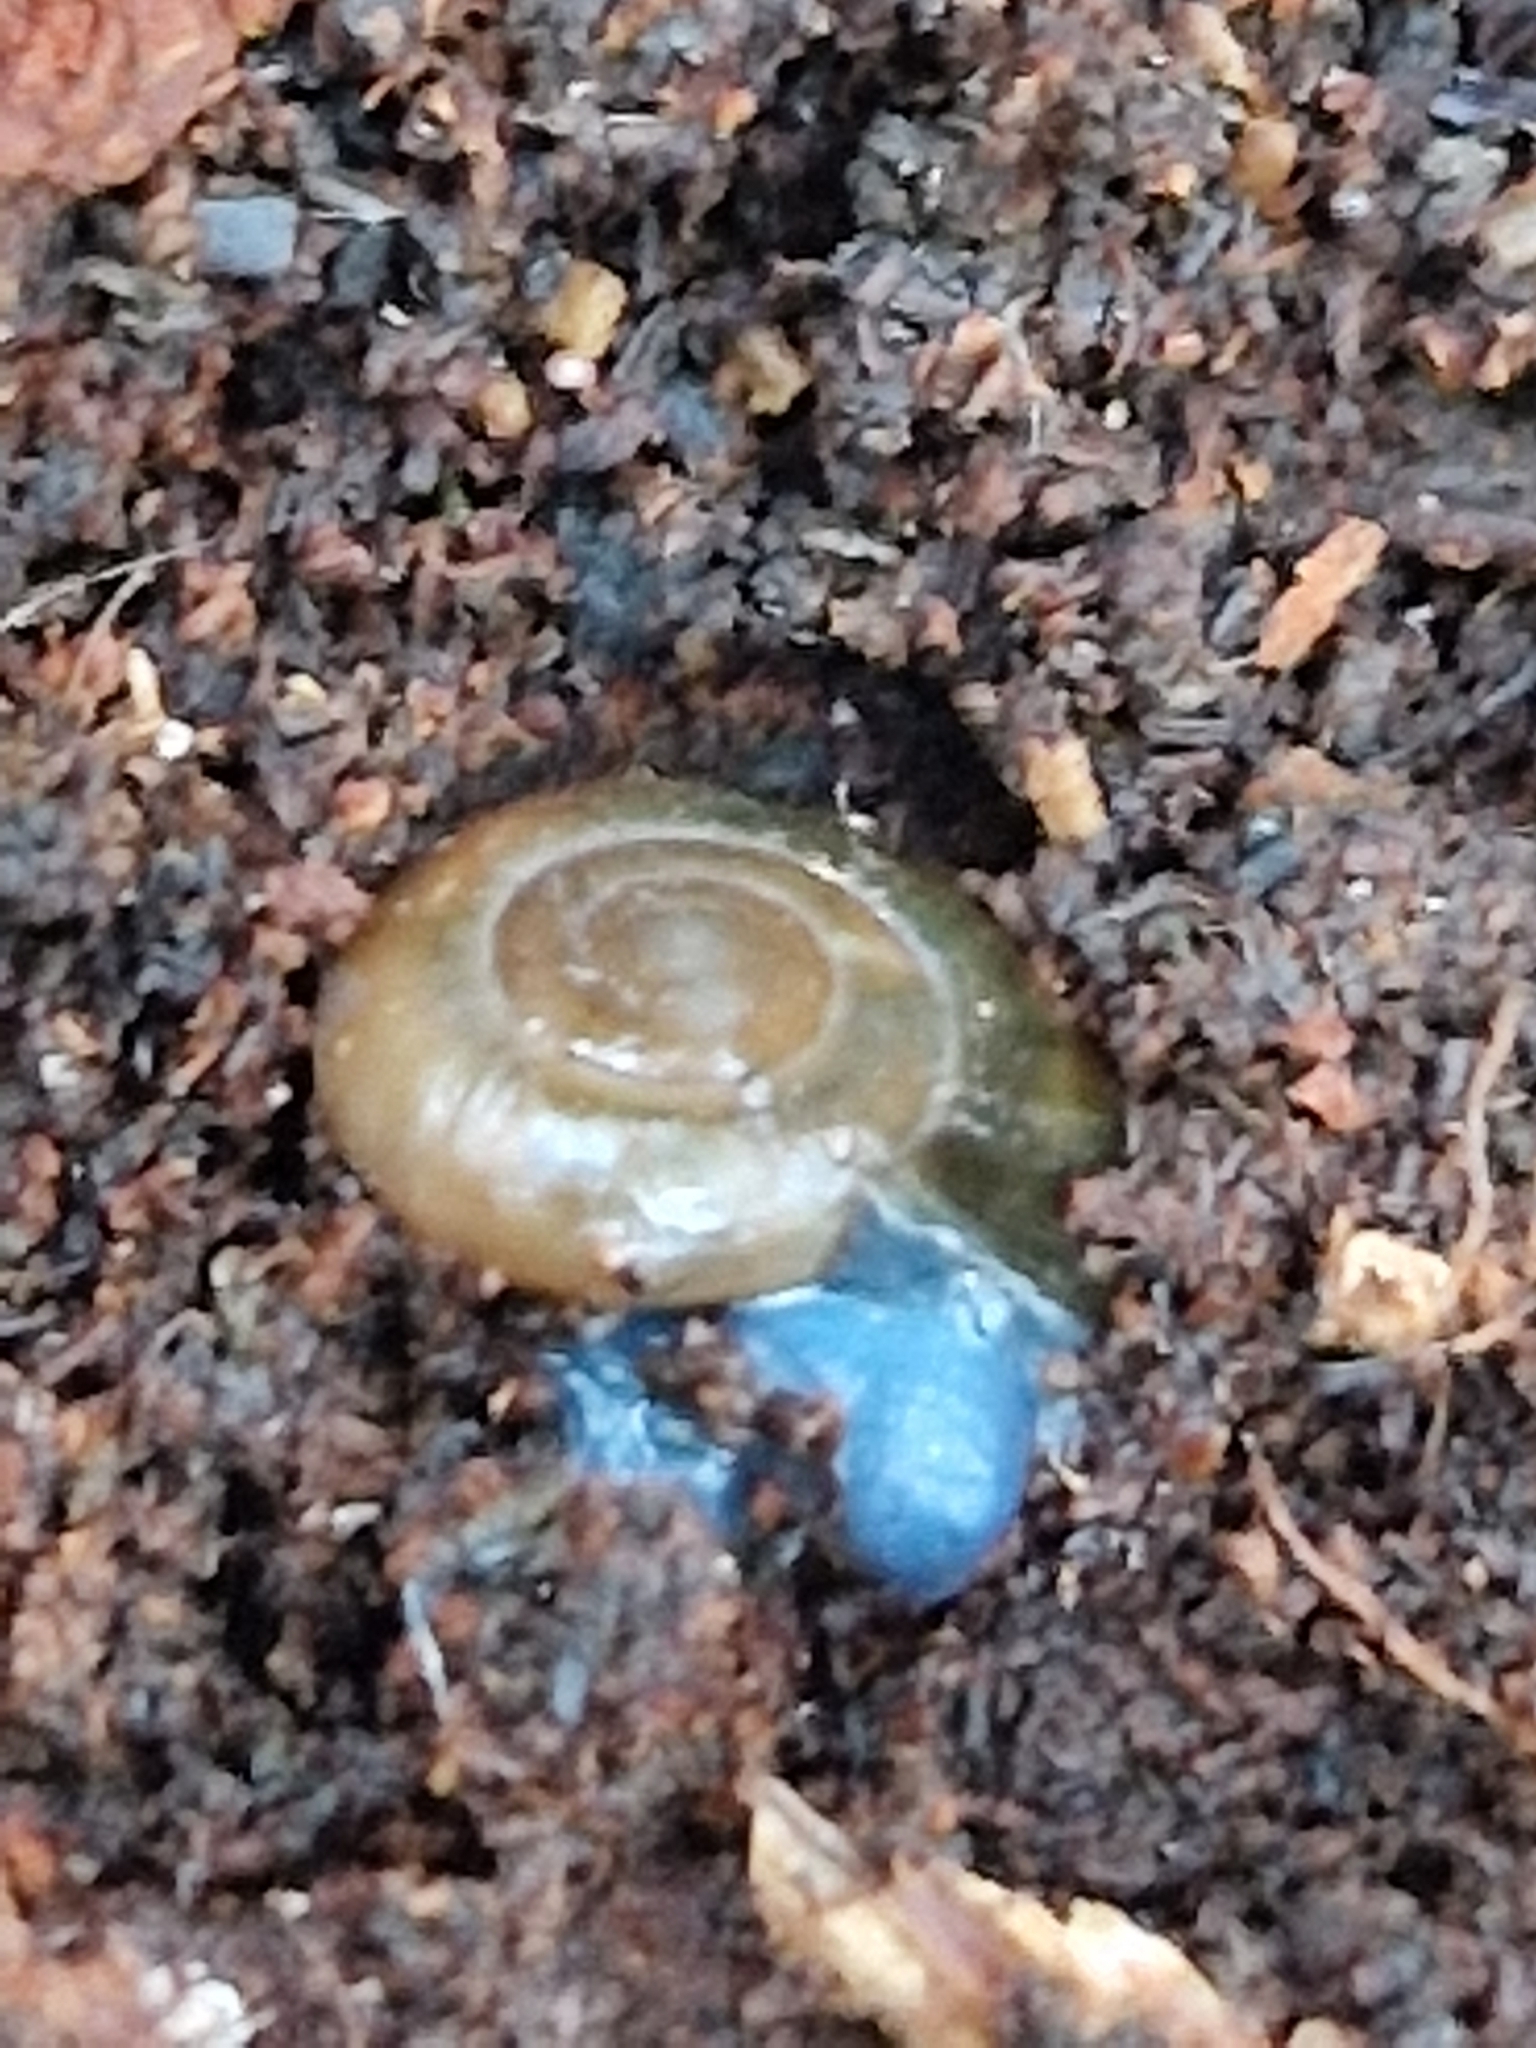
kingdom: Animalia
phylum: Mollusca
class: Gastropoda
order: Stylommatophora
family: Oxychilidae
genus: Oxychilus
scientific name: Oxychilus draparnaudi
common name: Draparnaud's glass snail
